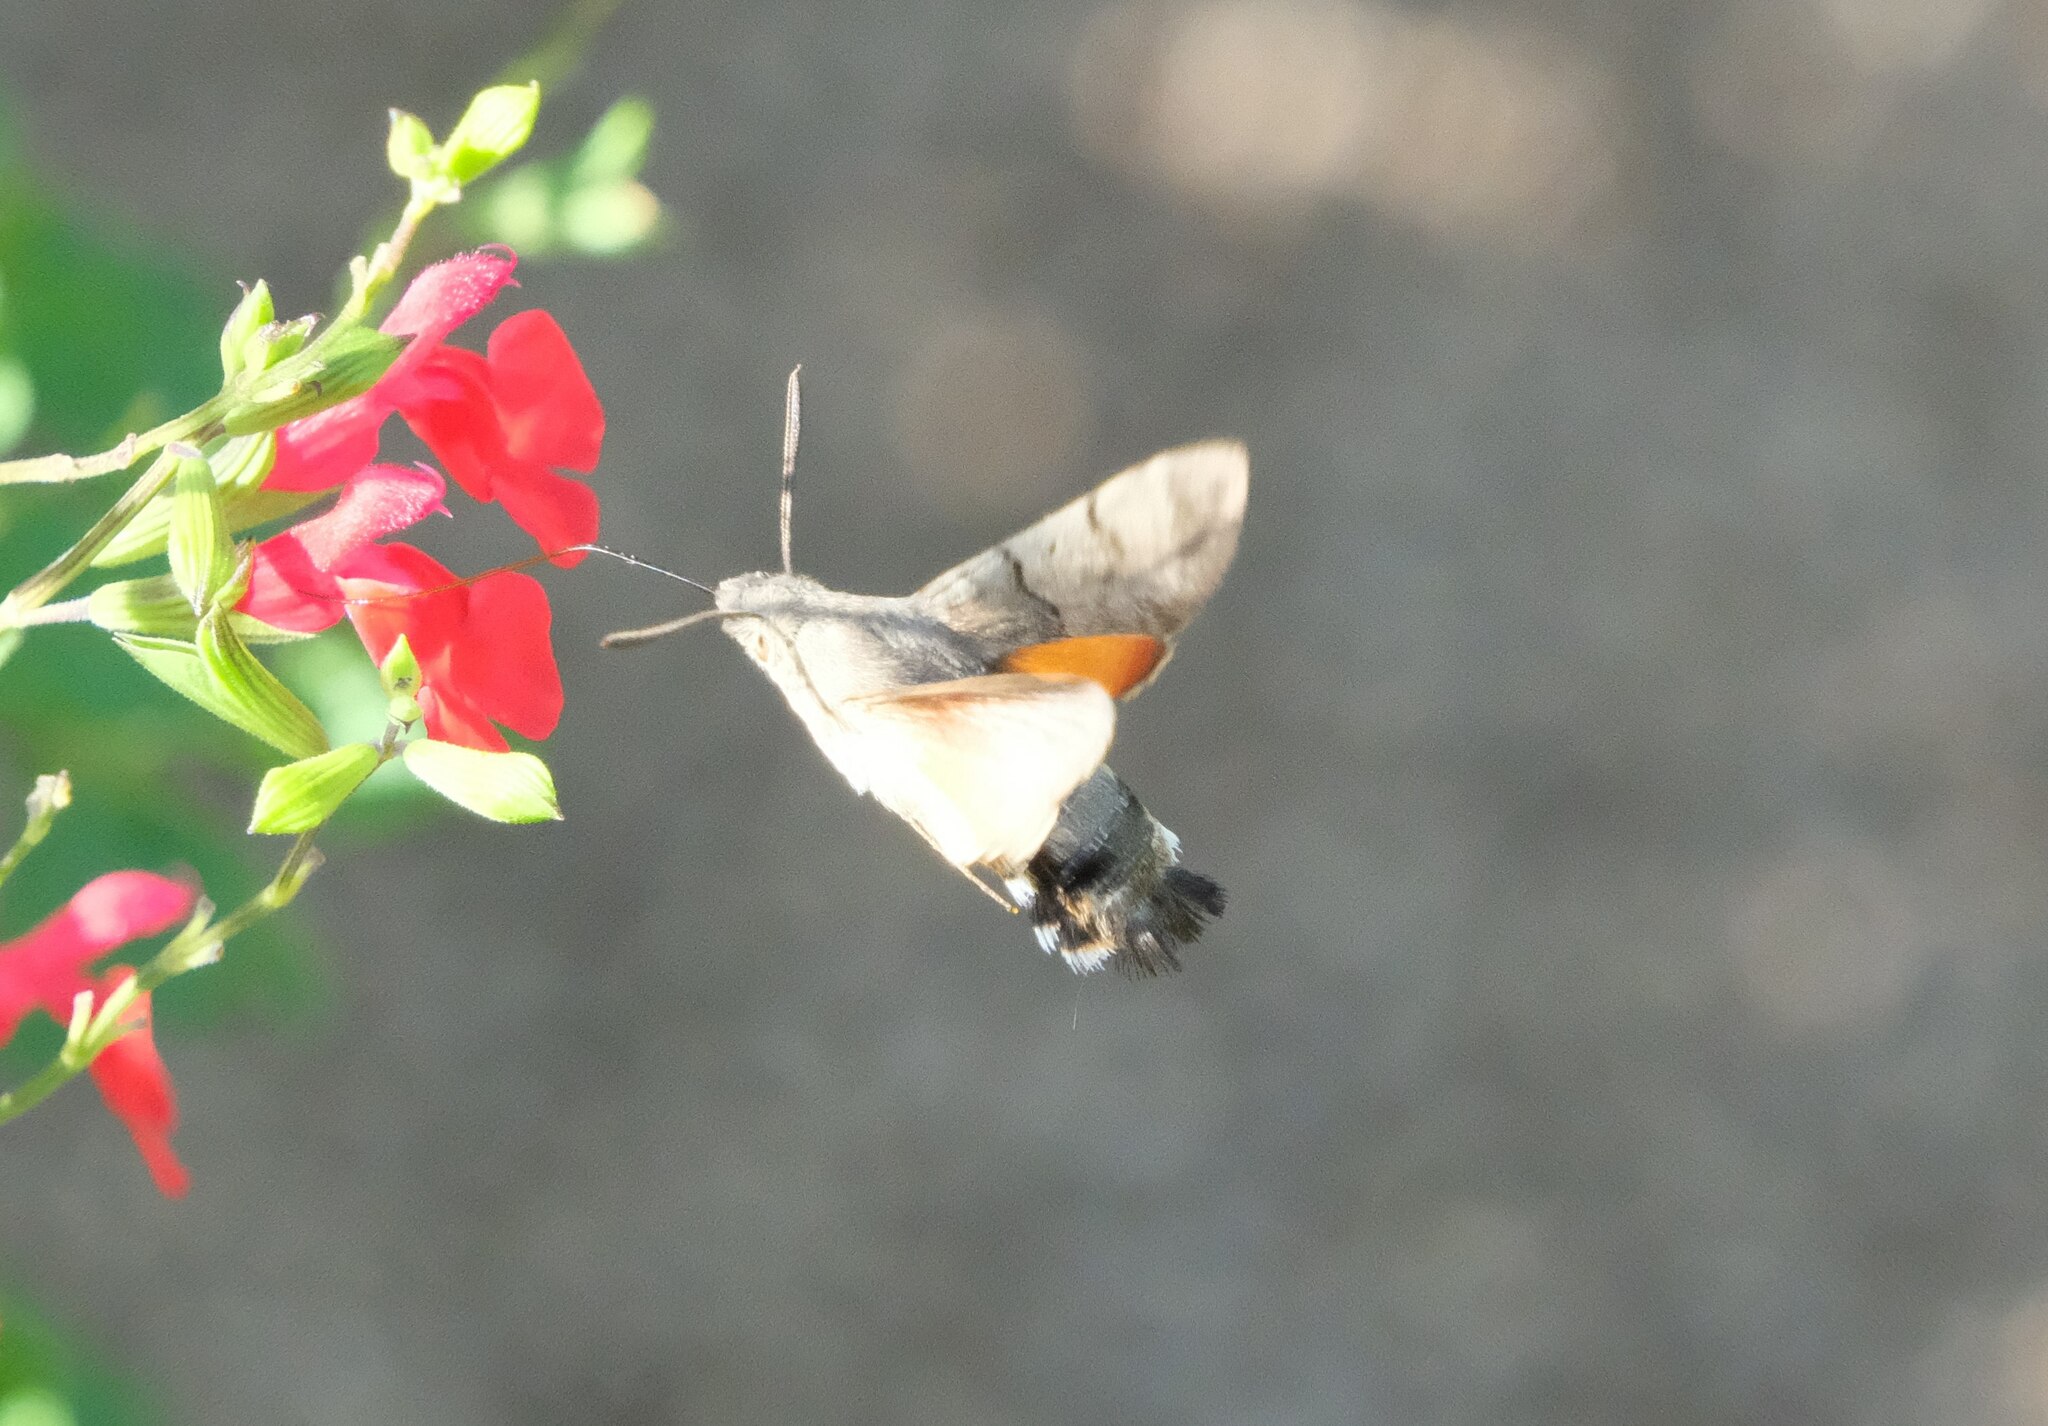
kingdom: Animalia
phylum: Arthropoda
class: Insecta
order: Lepidoptera
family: Sphingidae
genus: Macroglossum
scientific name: Macroglossum stellatarum
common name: Humming-bird hawk-moth
